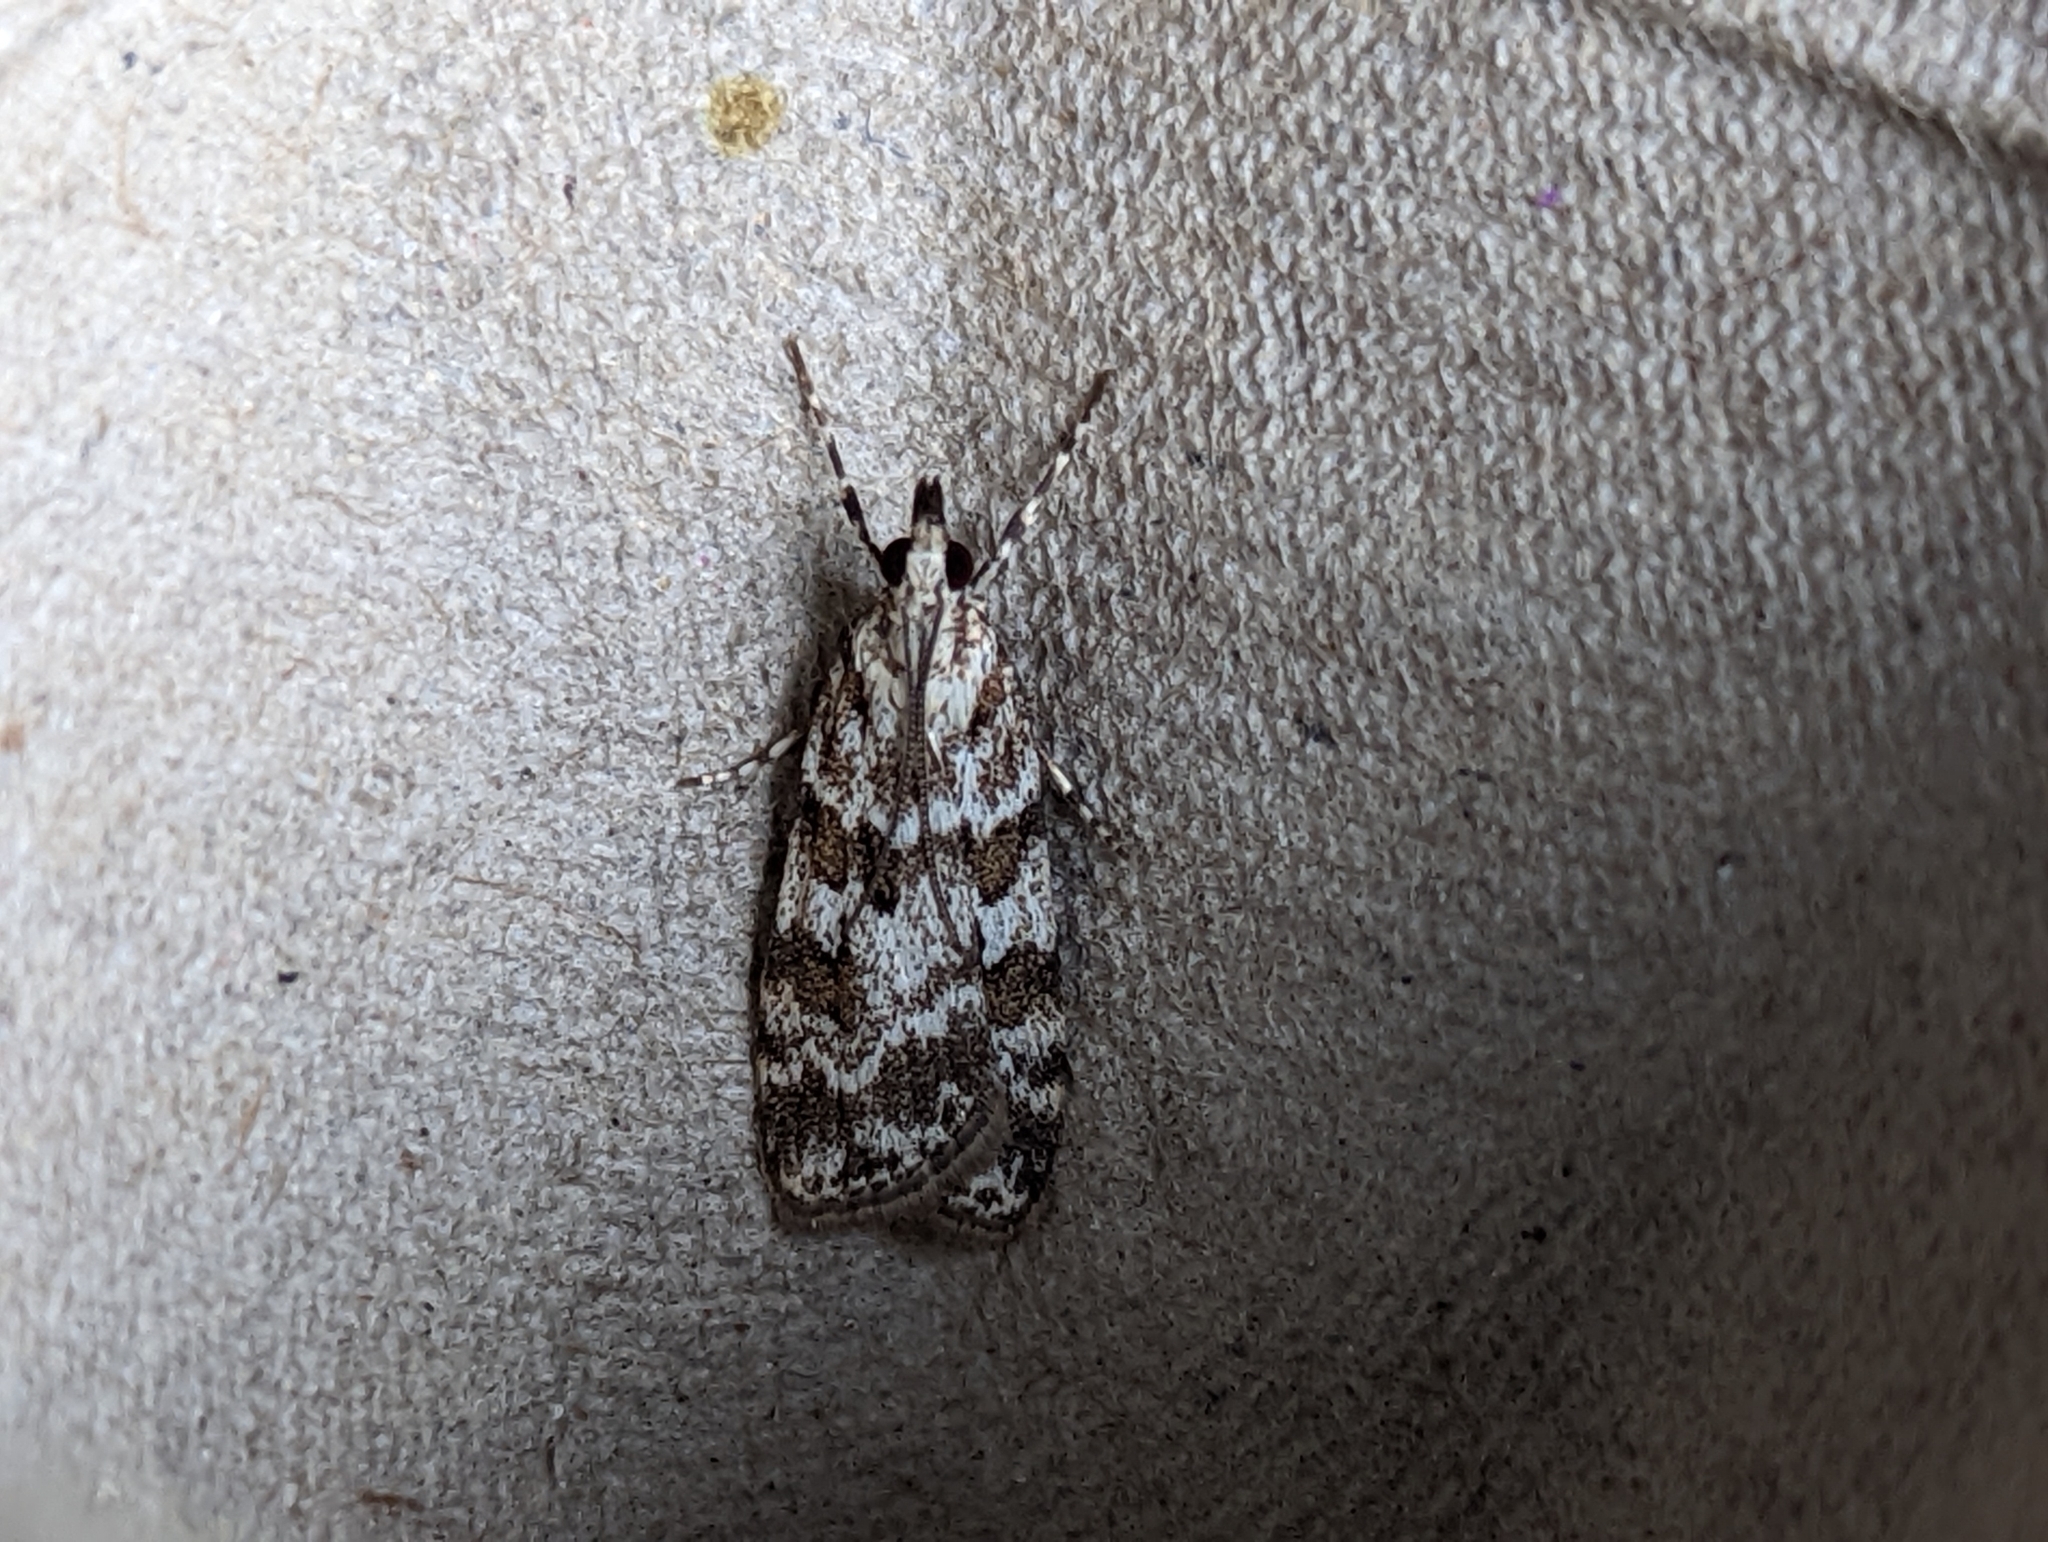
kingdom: Animalia
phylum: Arthropoda
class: Insecta
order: Lepidoptera
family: Crambidae
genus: Scoparia
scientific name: Scoparia pyralella
